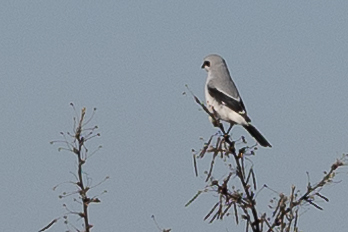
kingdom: Animalia
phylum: Chordata
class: Aves
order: Passeriformes
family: Laniidae
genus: Lanius
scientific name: Lanius borealis
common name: Northern shrike
